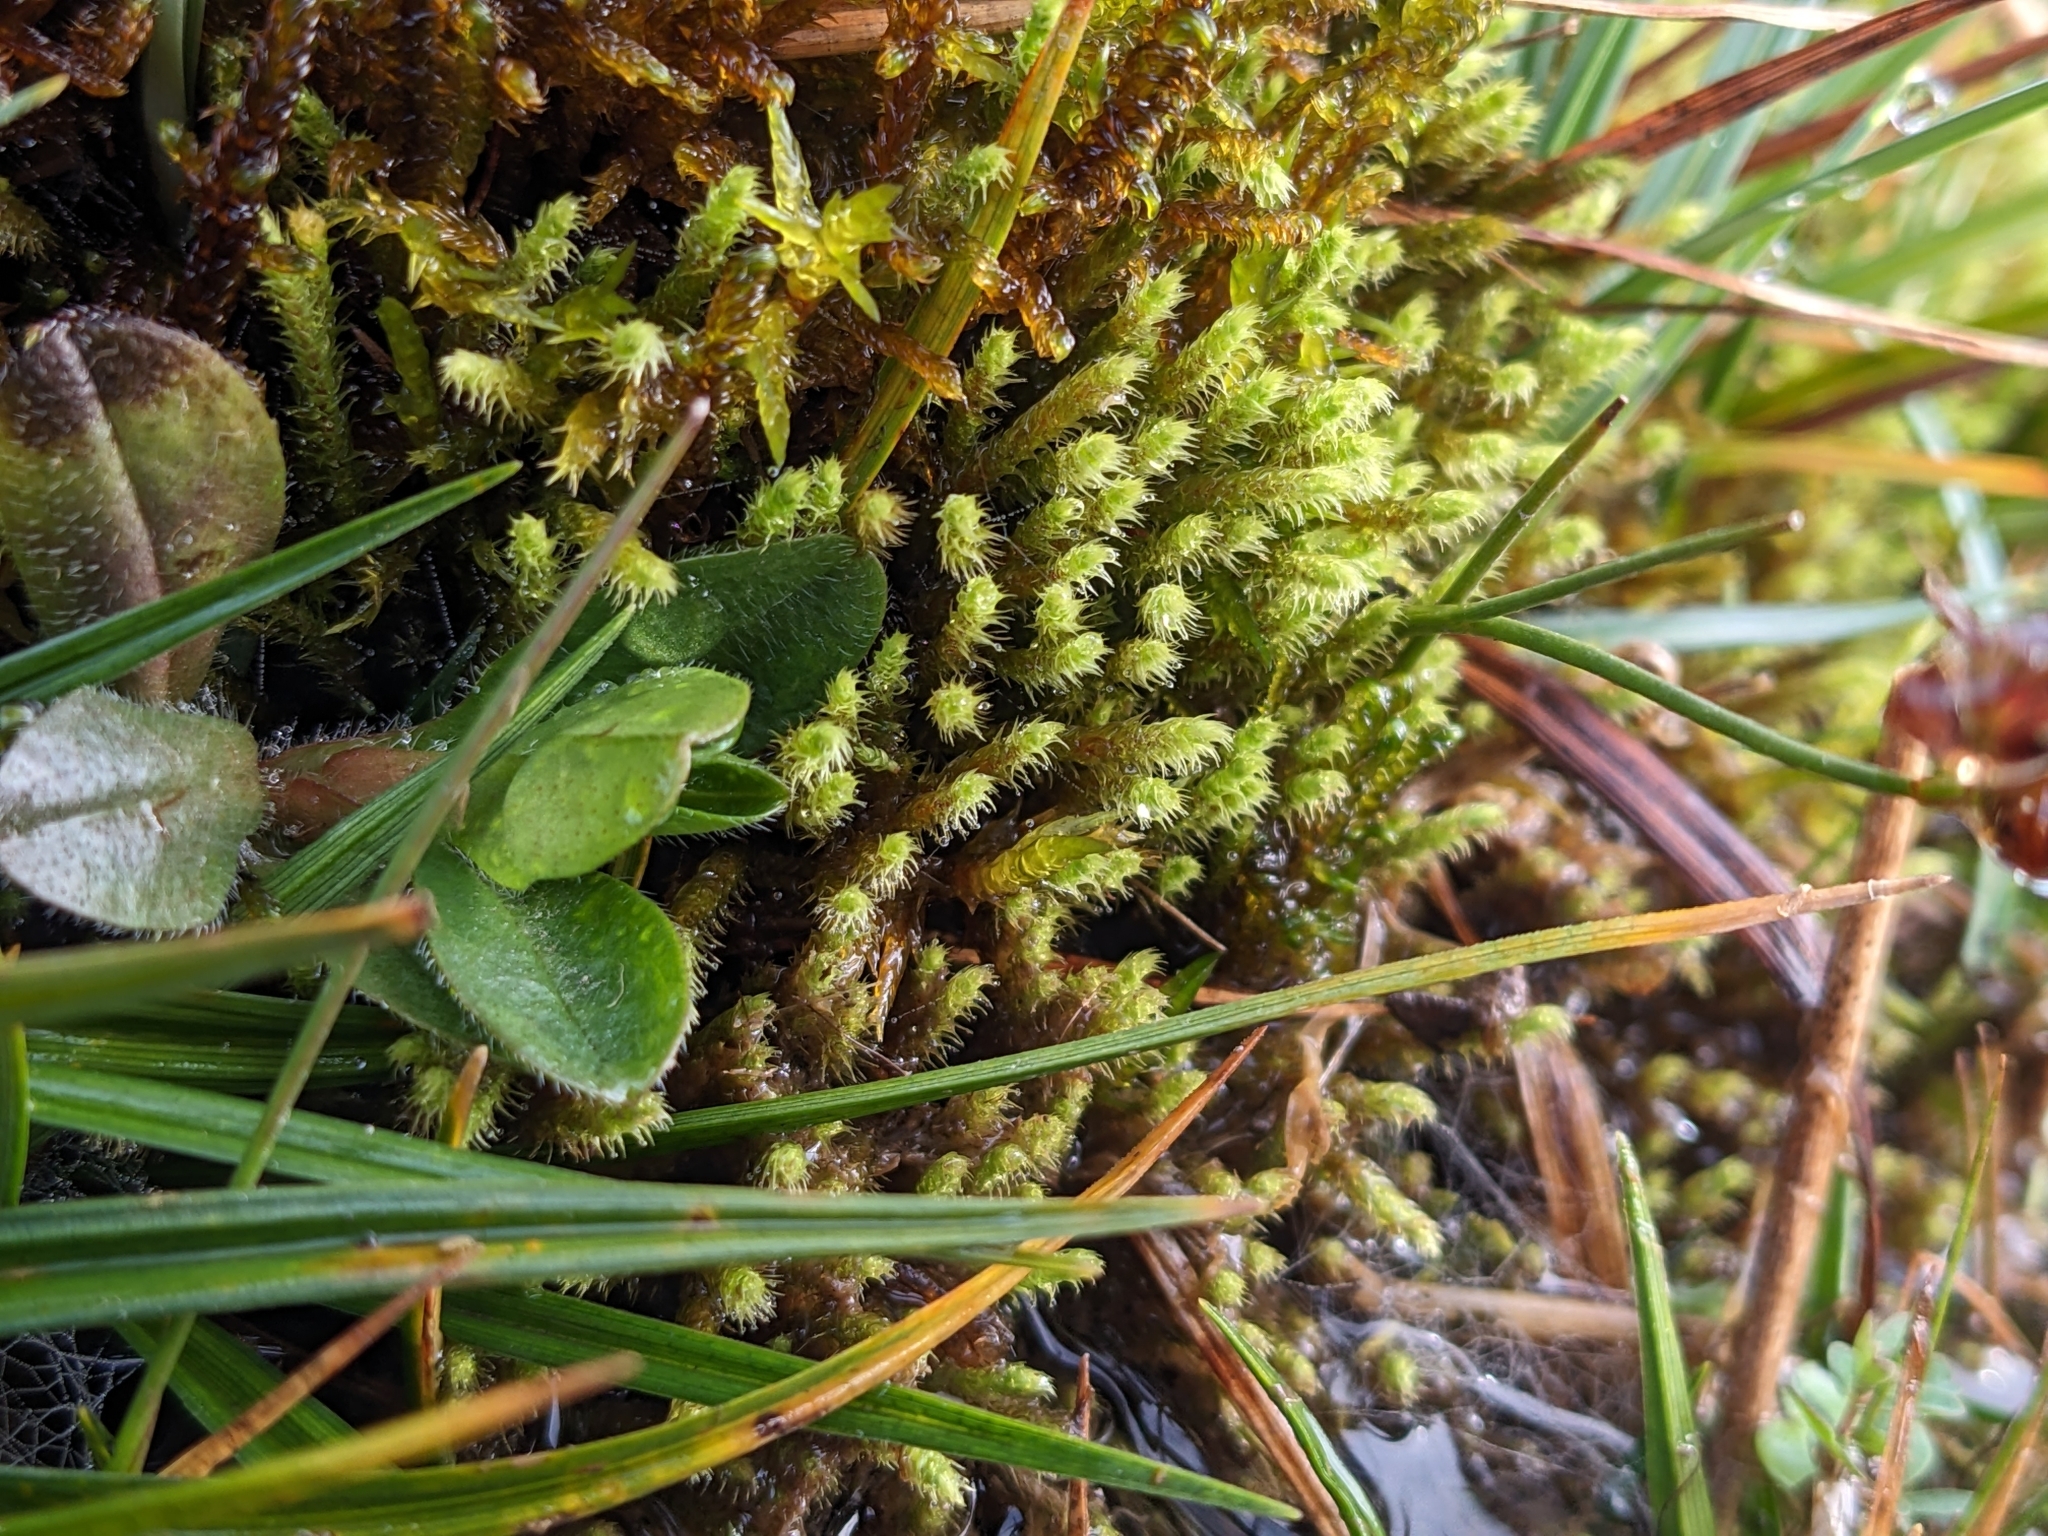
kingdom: Plantae
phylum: Bryophyta
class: Bryopsida
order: Bartramiales
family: Bartramiaceae
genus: Philonotis
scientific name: Philonotis calcarea
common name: Thick-nerved apple-moss
